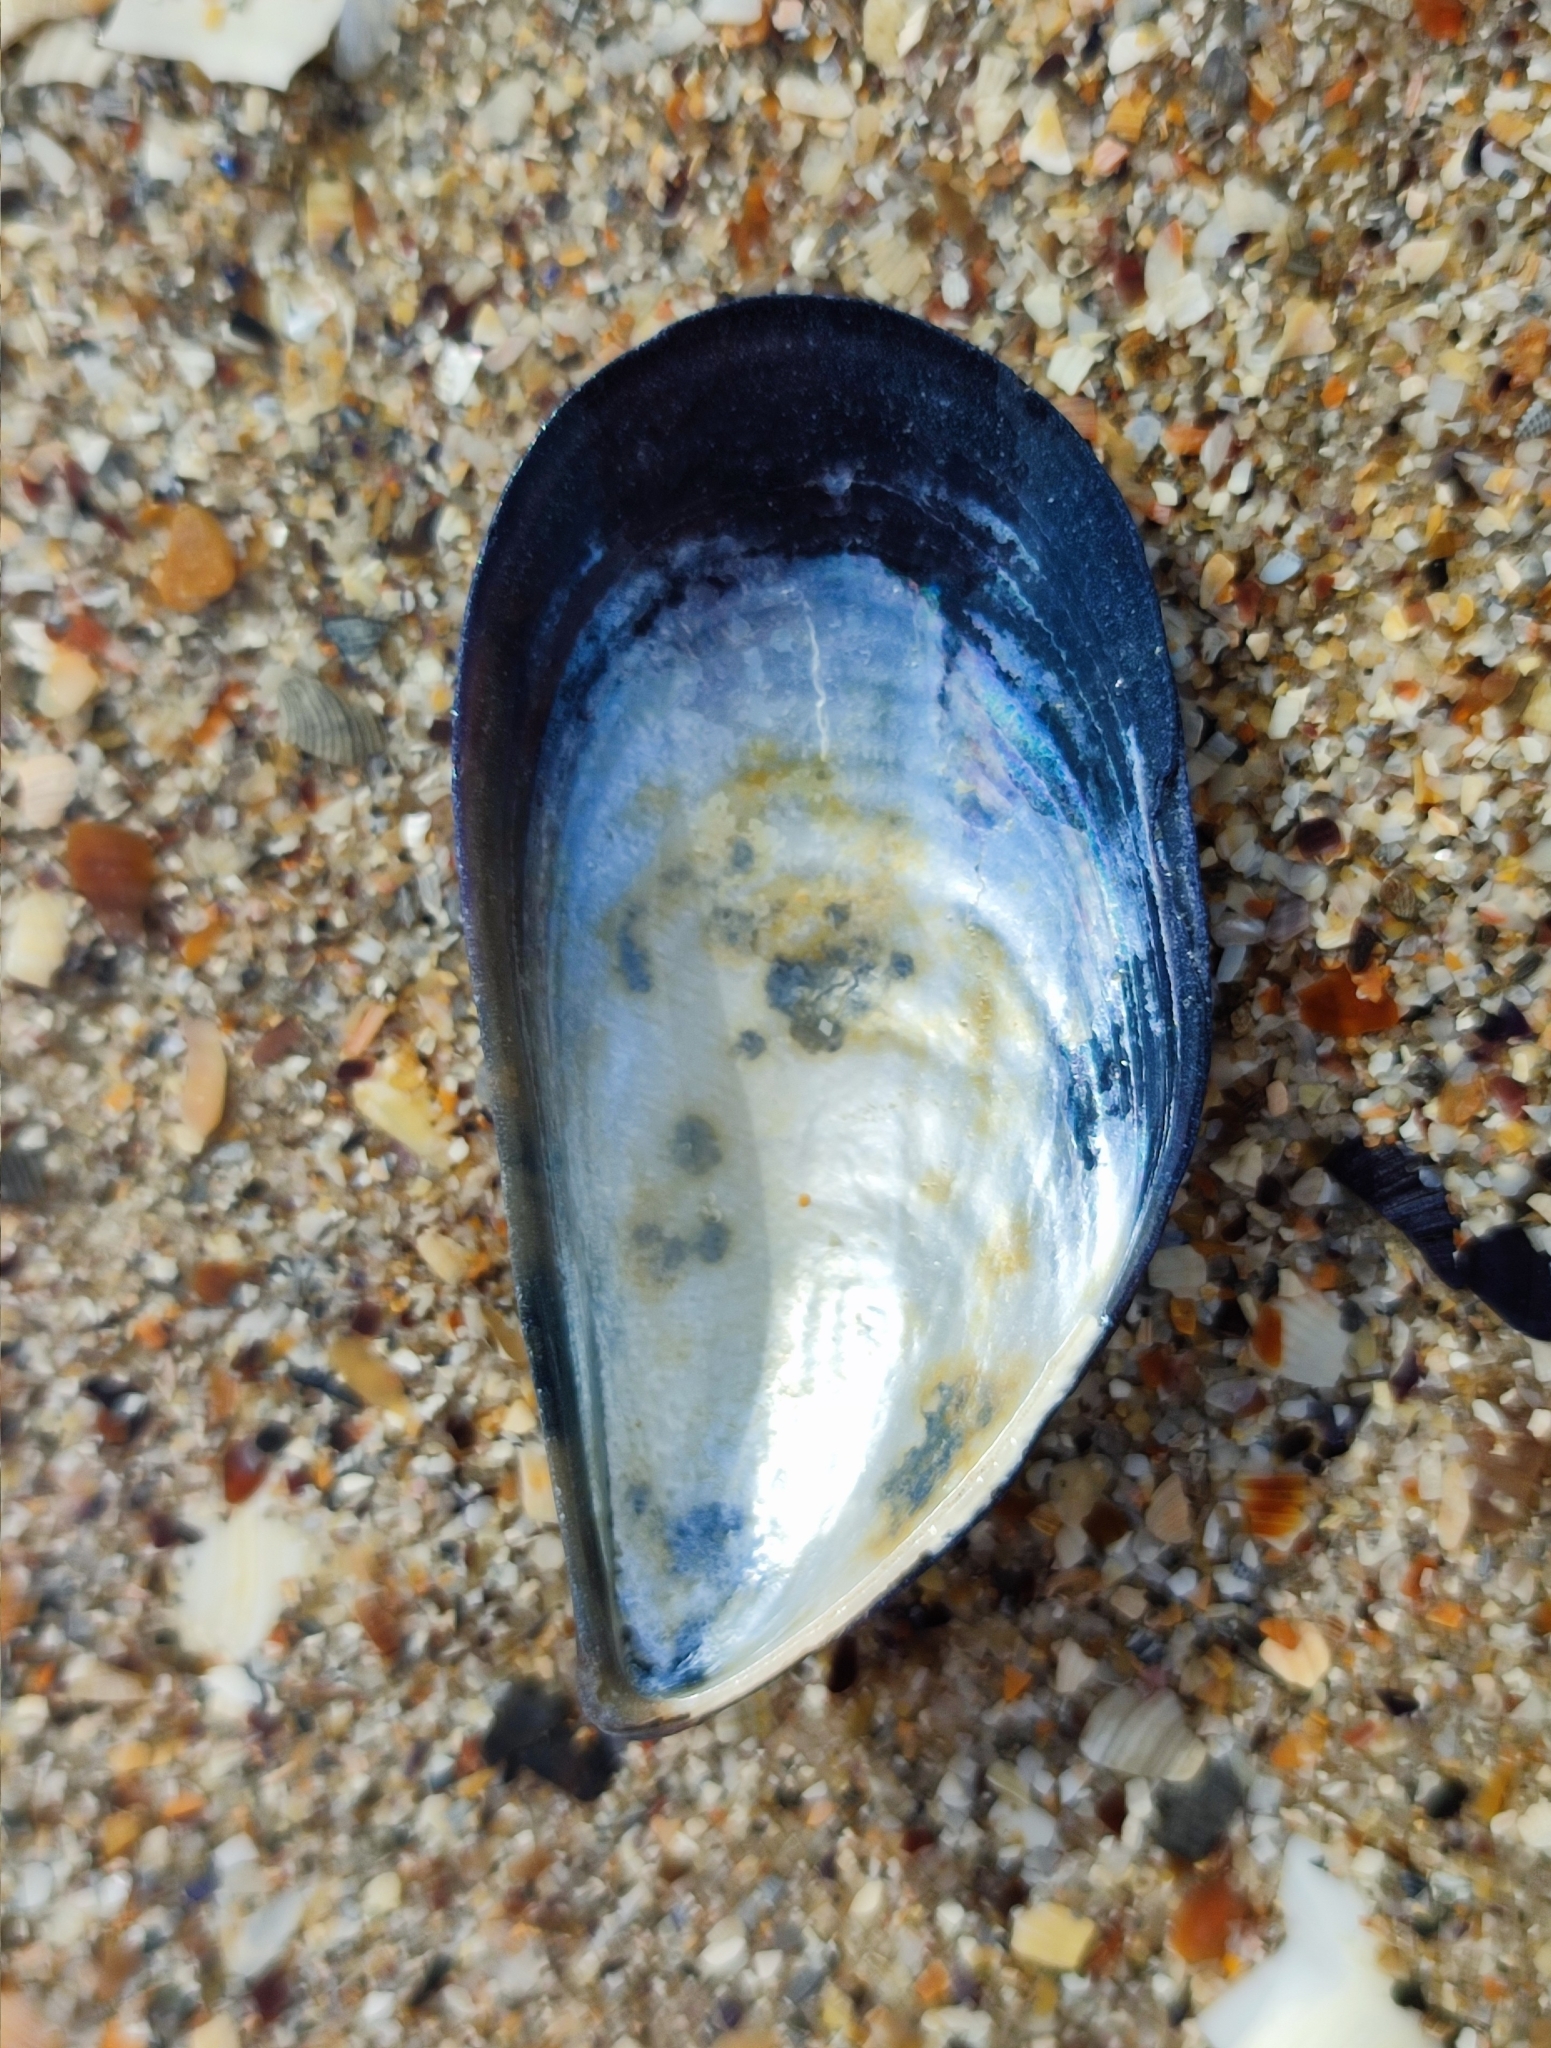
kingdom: Animalia
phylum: Mollusca
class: Bivalvia
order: Mytilida
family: Mytilidae
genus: Mytilus
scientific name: Mytilus galloprovincialis
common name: Mediterranean mussel
